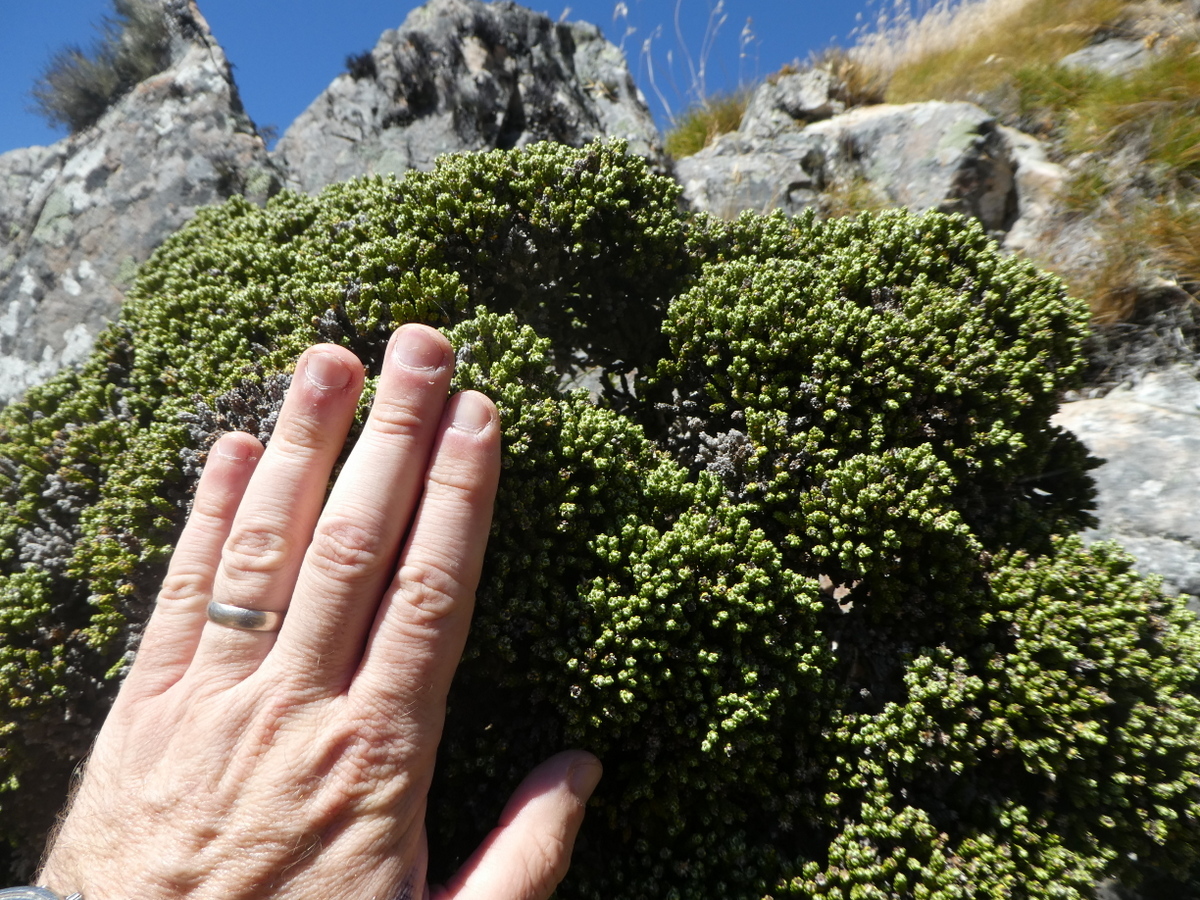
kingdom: Plantae
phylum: Tracheophyta
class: Magnoliopsida
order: Asterales
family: Asteraceae
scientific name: Asteraceae
